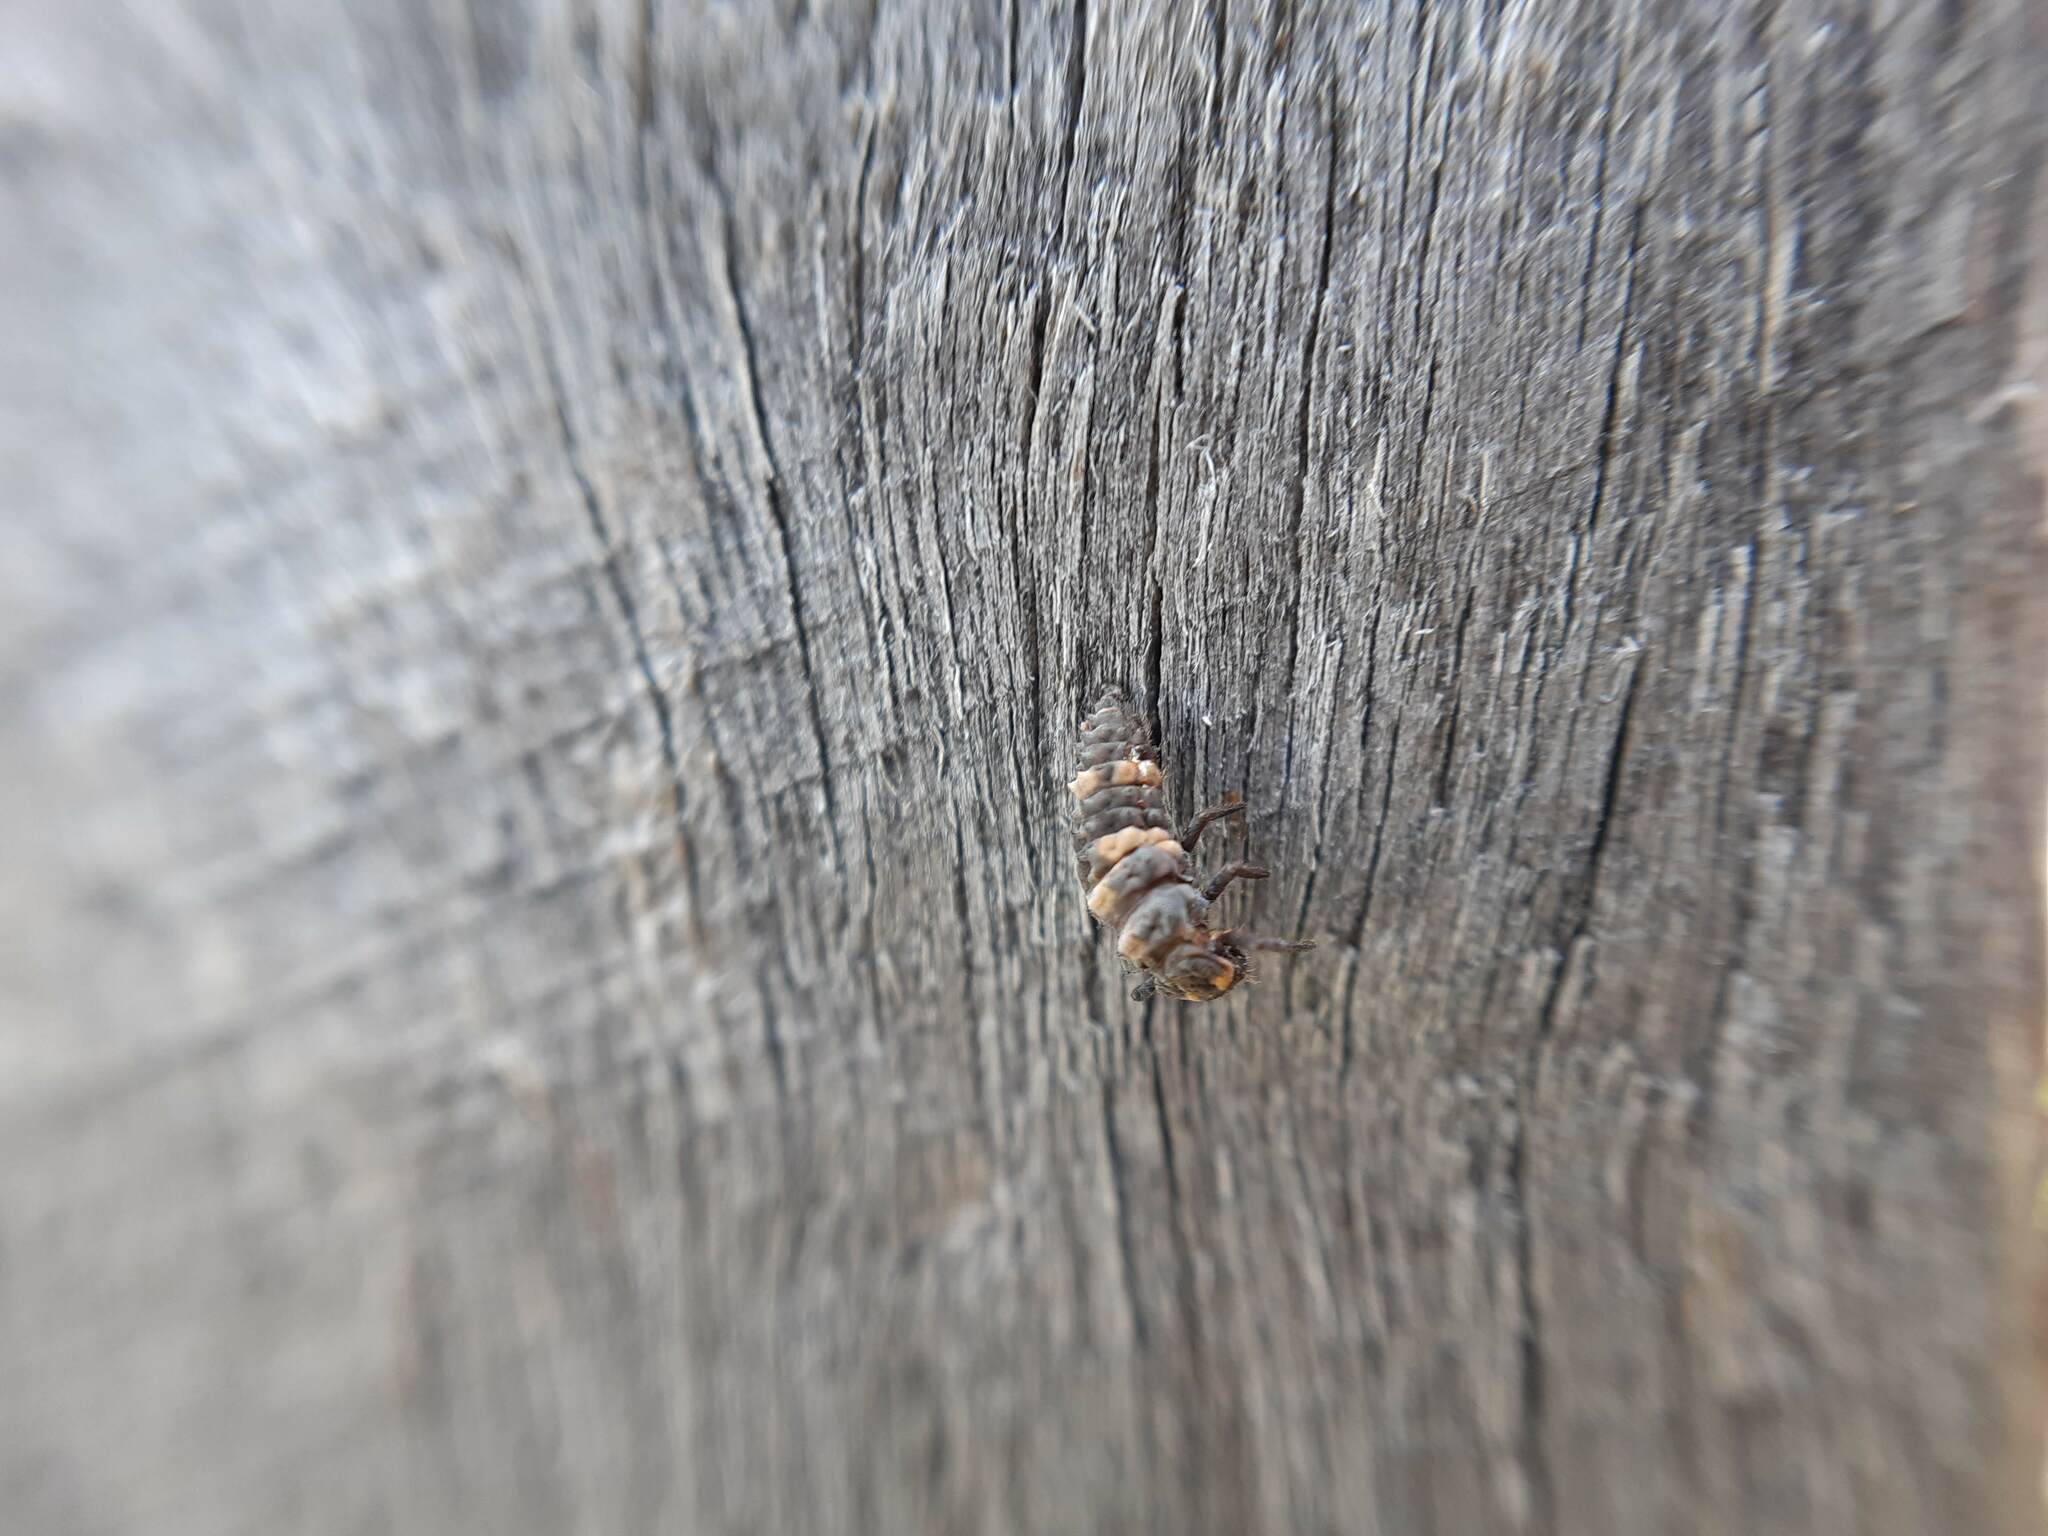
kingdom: Animalia
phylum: Arthropoda
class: Insecta
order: Coleoptera
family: Coccinellidae
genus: Coccinella
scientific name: Coccinella transversalis
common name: Transverse lady beetle
